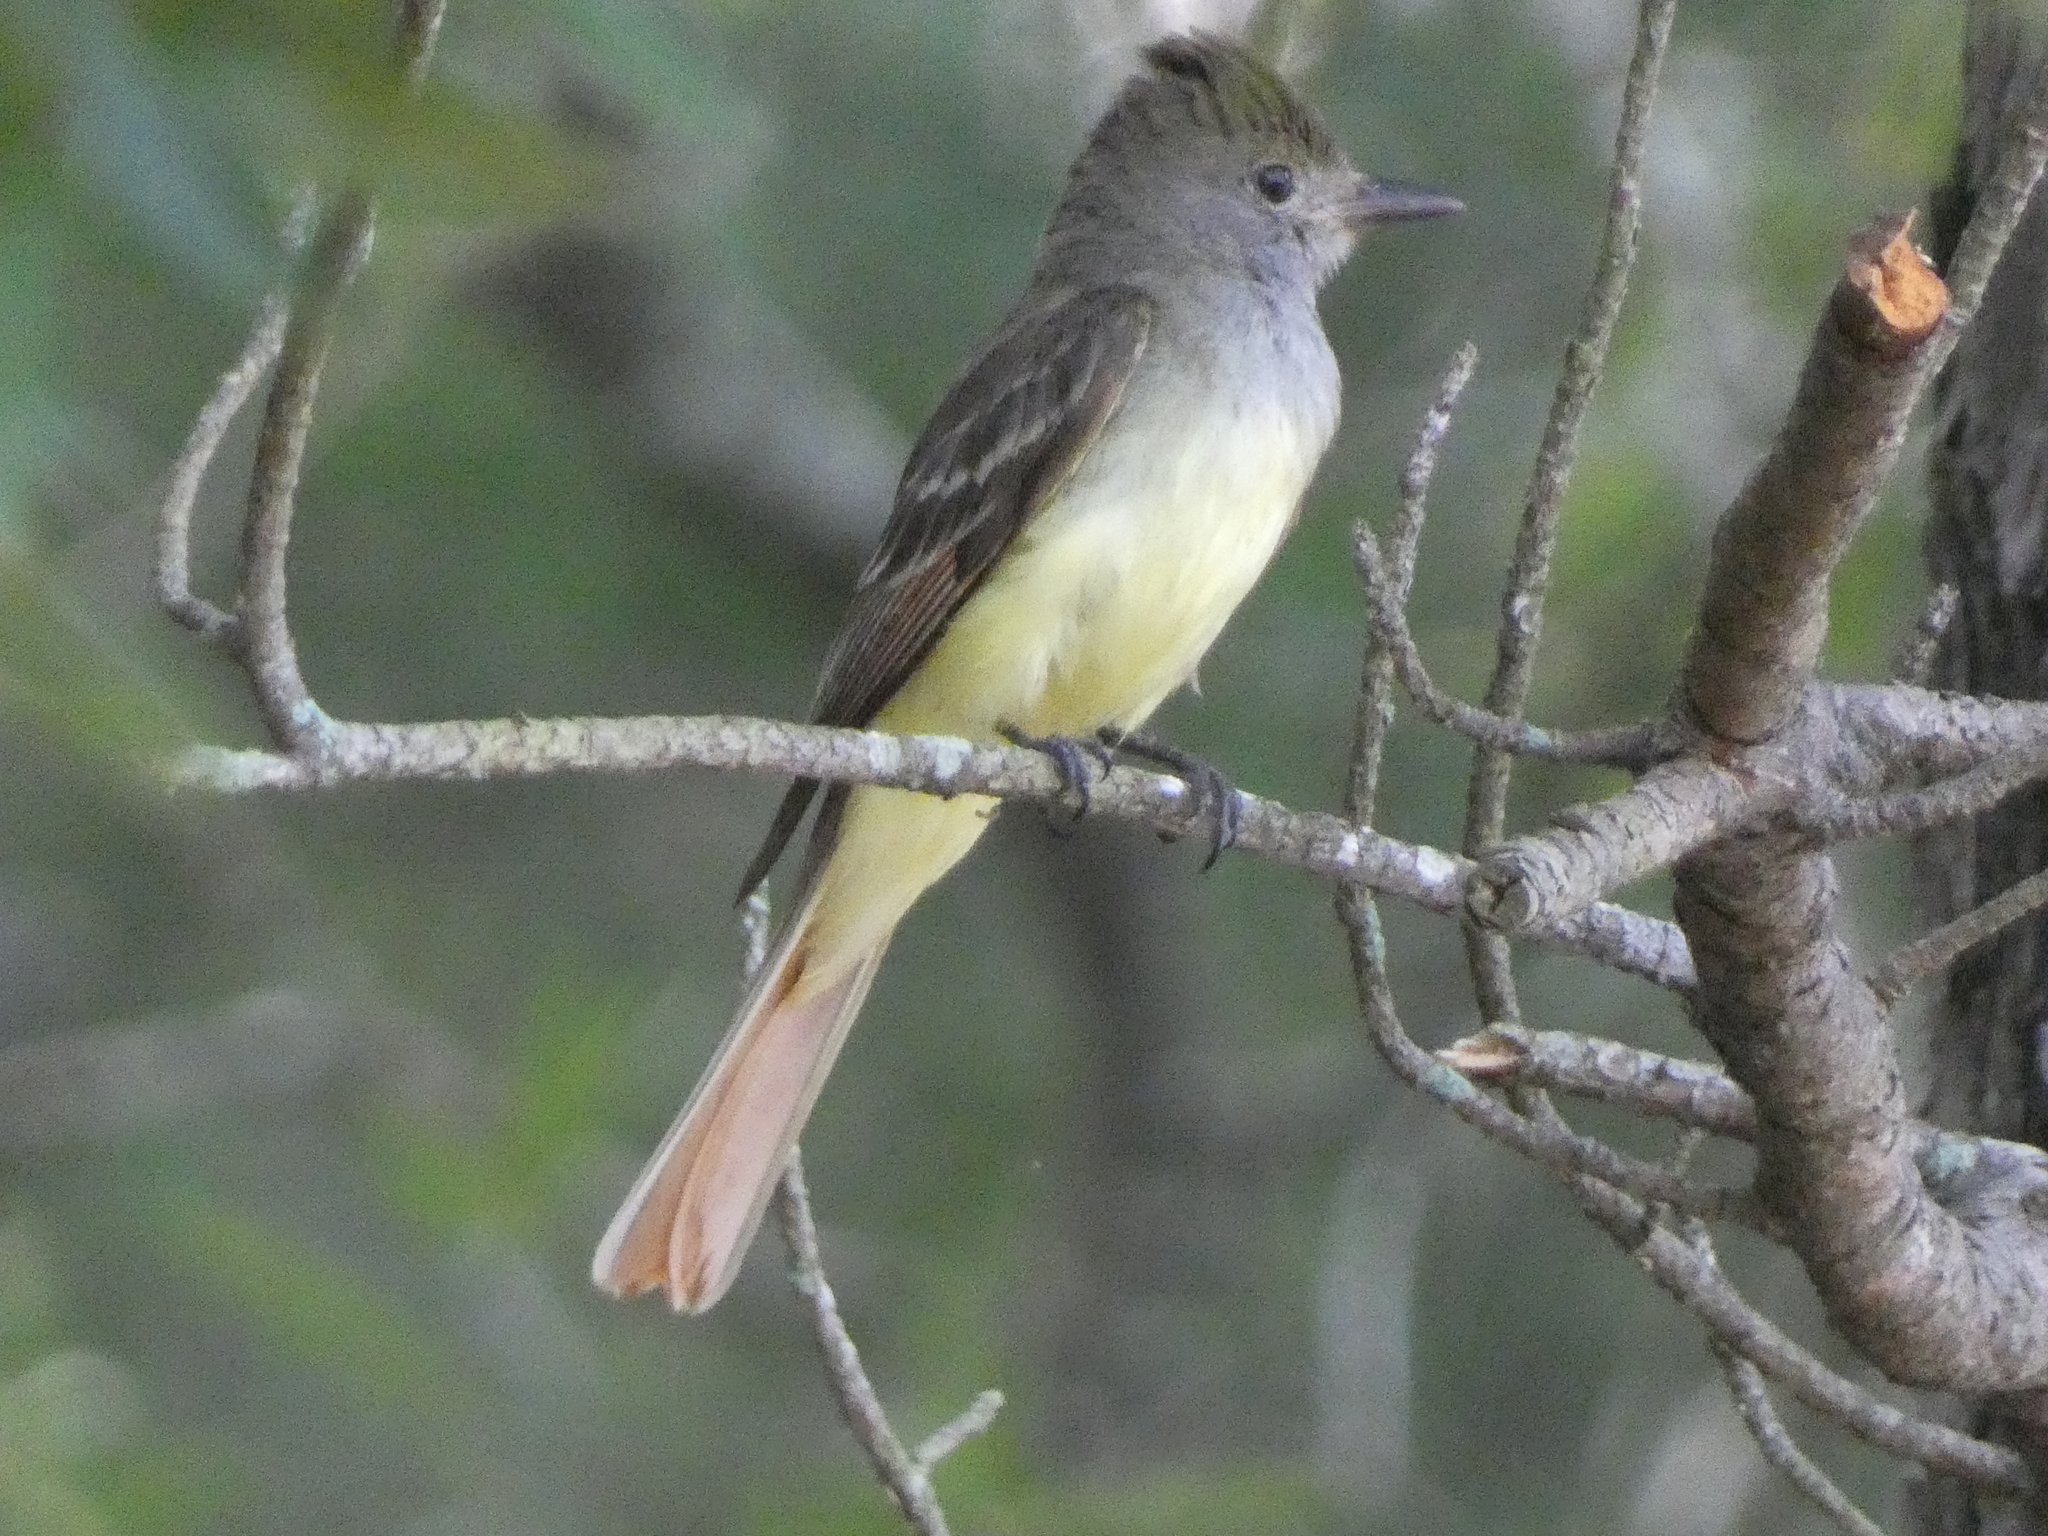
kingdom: Animalia
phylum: Chordata
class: Aves
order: Passeriformes
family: Tyrannidae
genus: Myiarchus
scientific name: Myiarchus crinitus
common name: Great crested flycatcher
